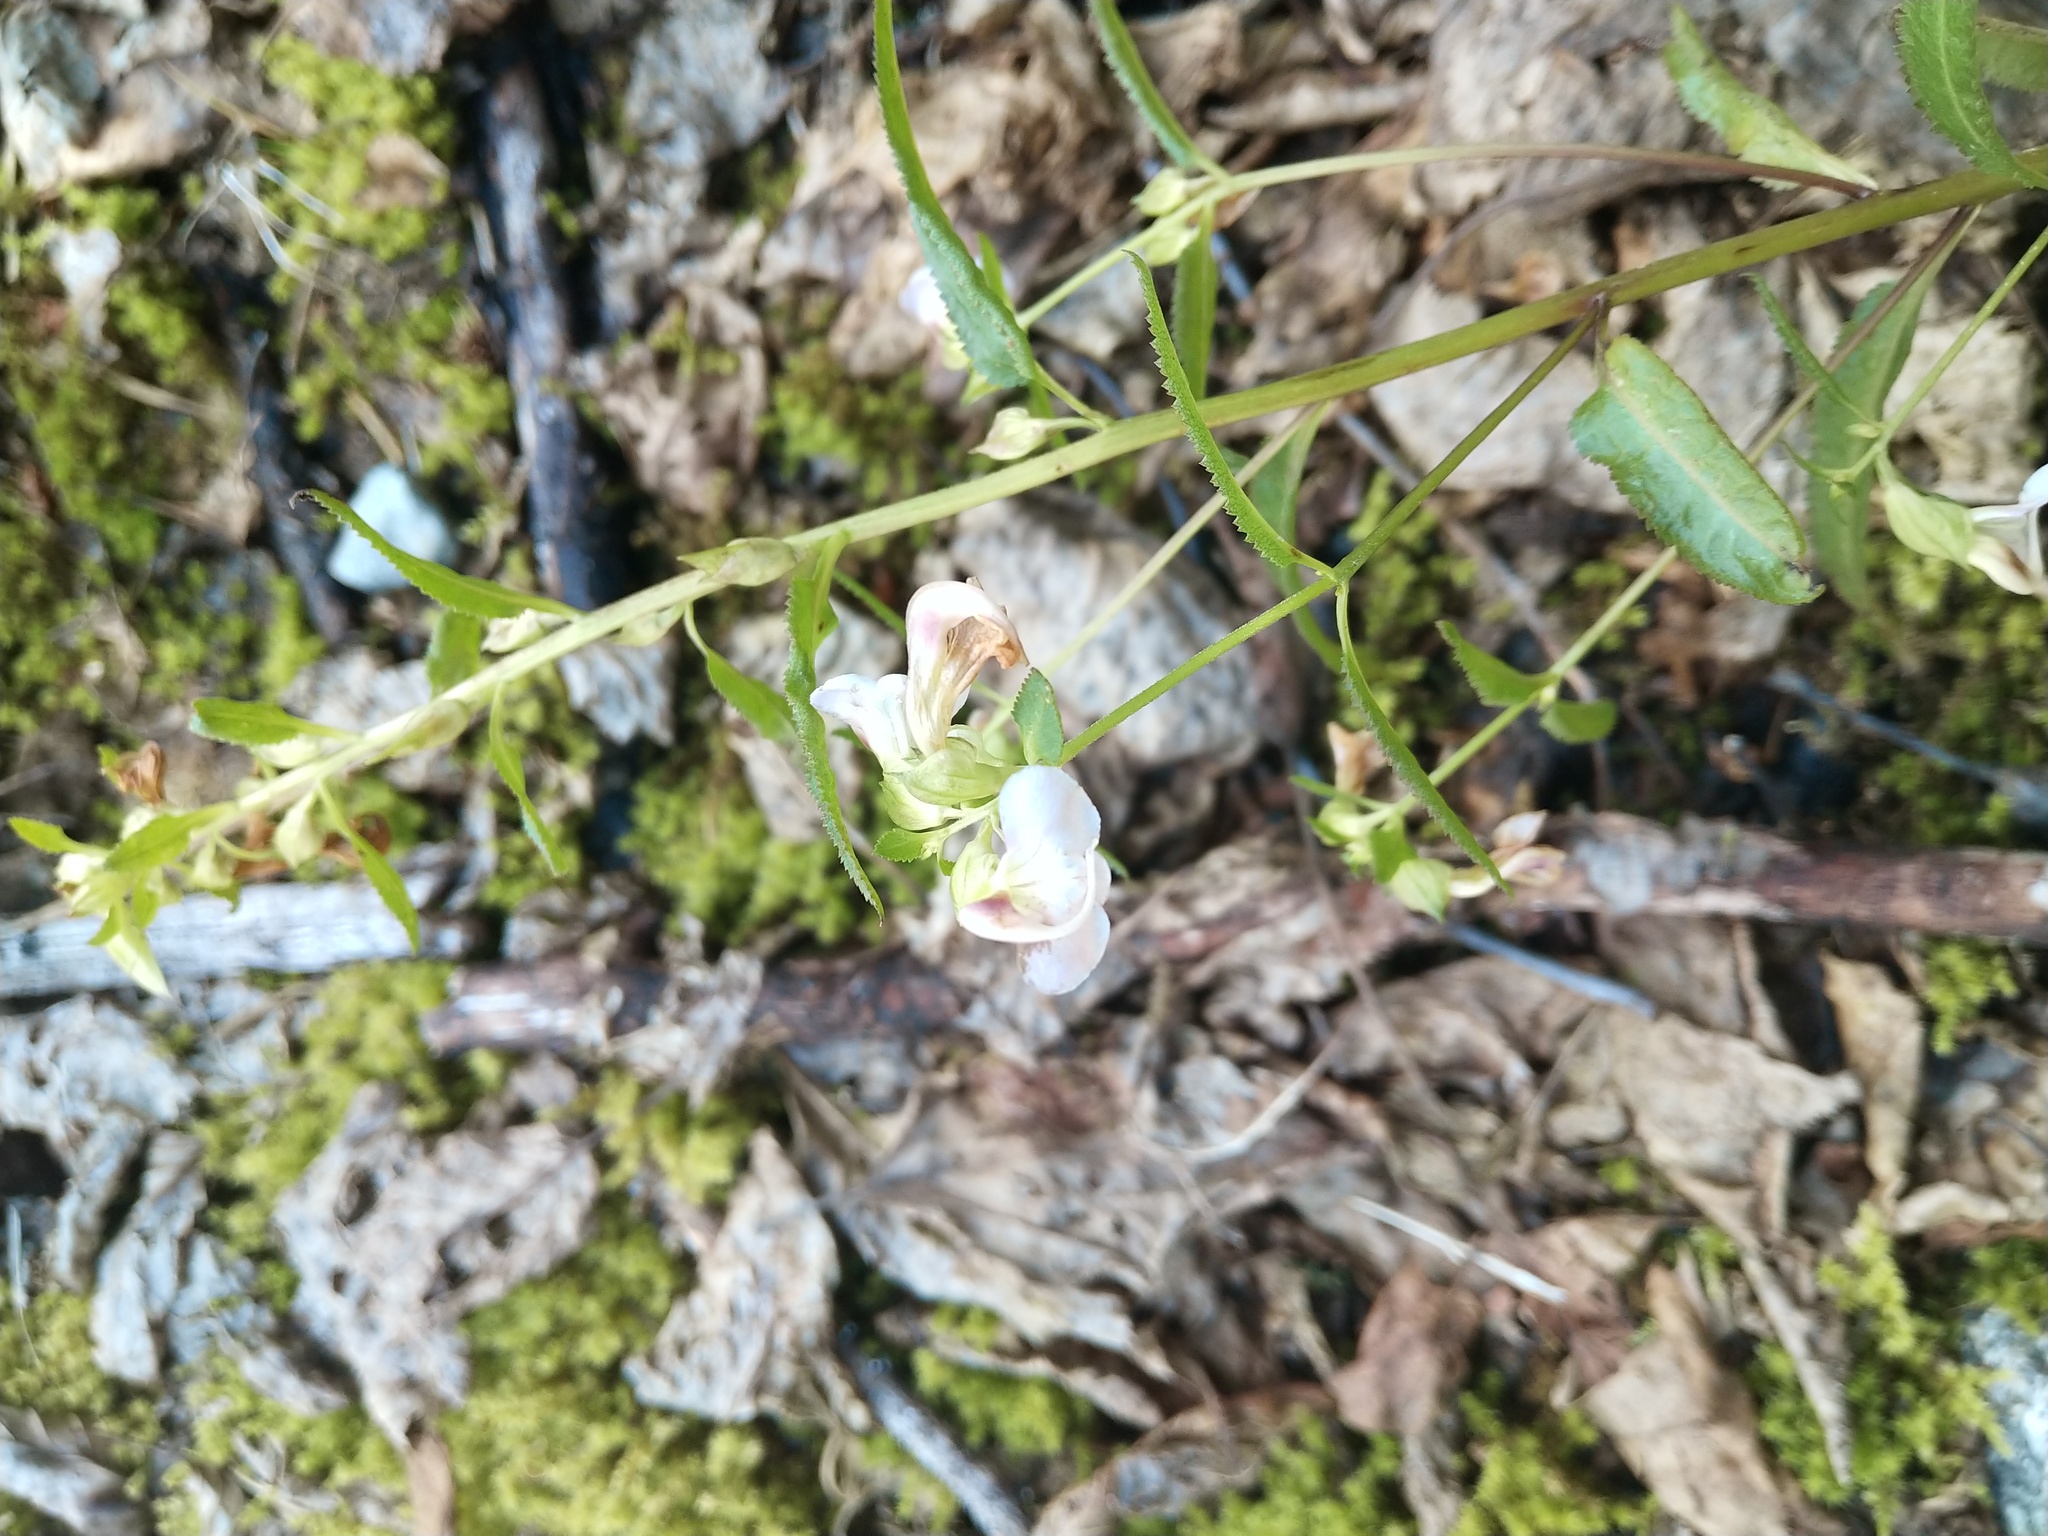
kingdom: Plantae
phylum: Tracheophyta
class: Magnoliopsida
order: Lamiales
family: Orobanchaceae
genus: Pedicularis
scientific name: Pedicularis racemosa
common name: Leafy lousewort
